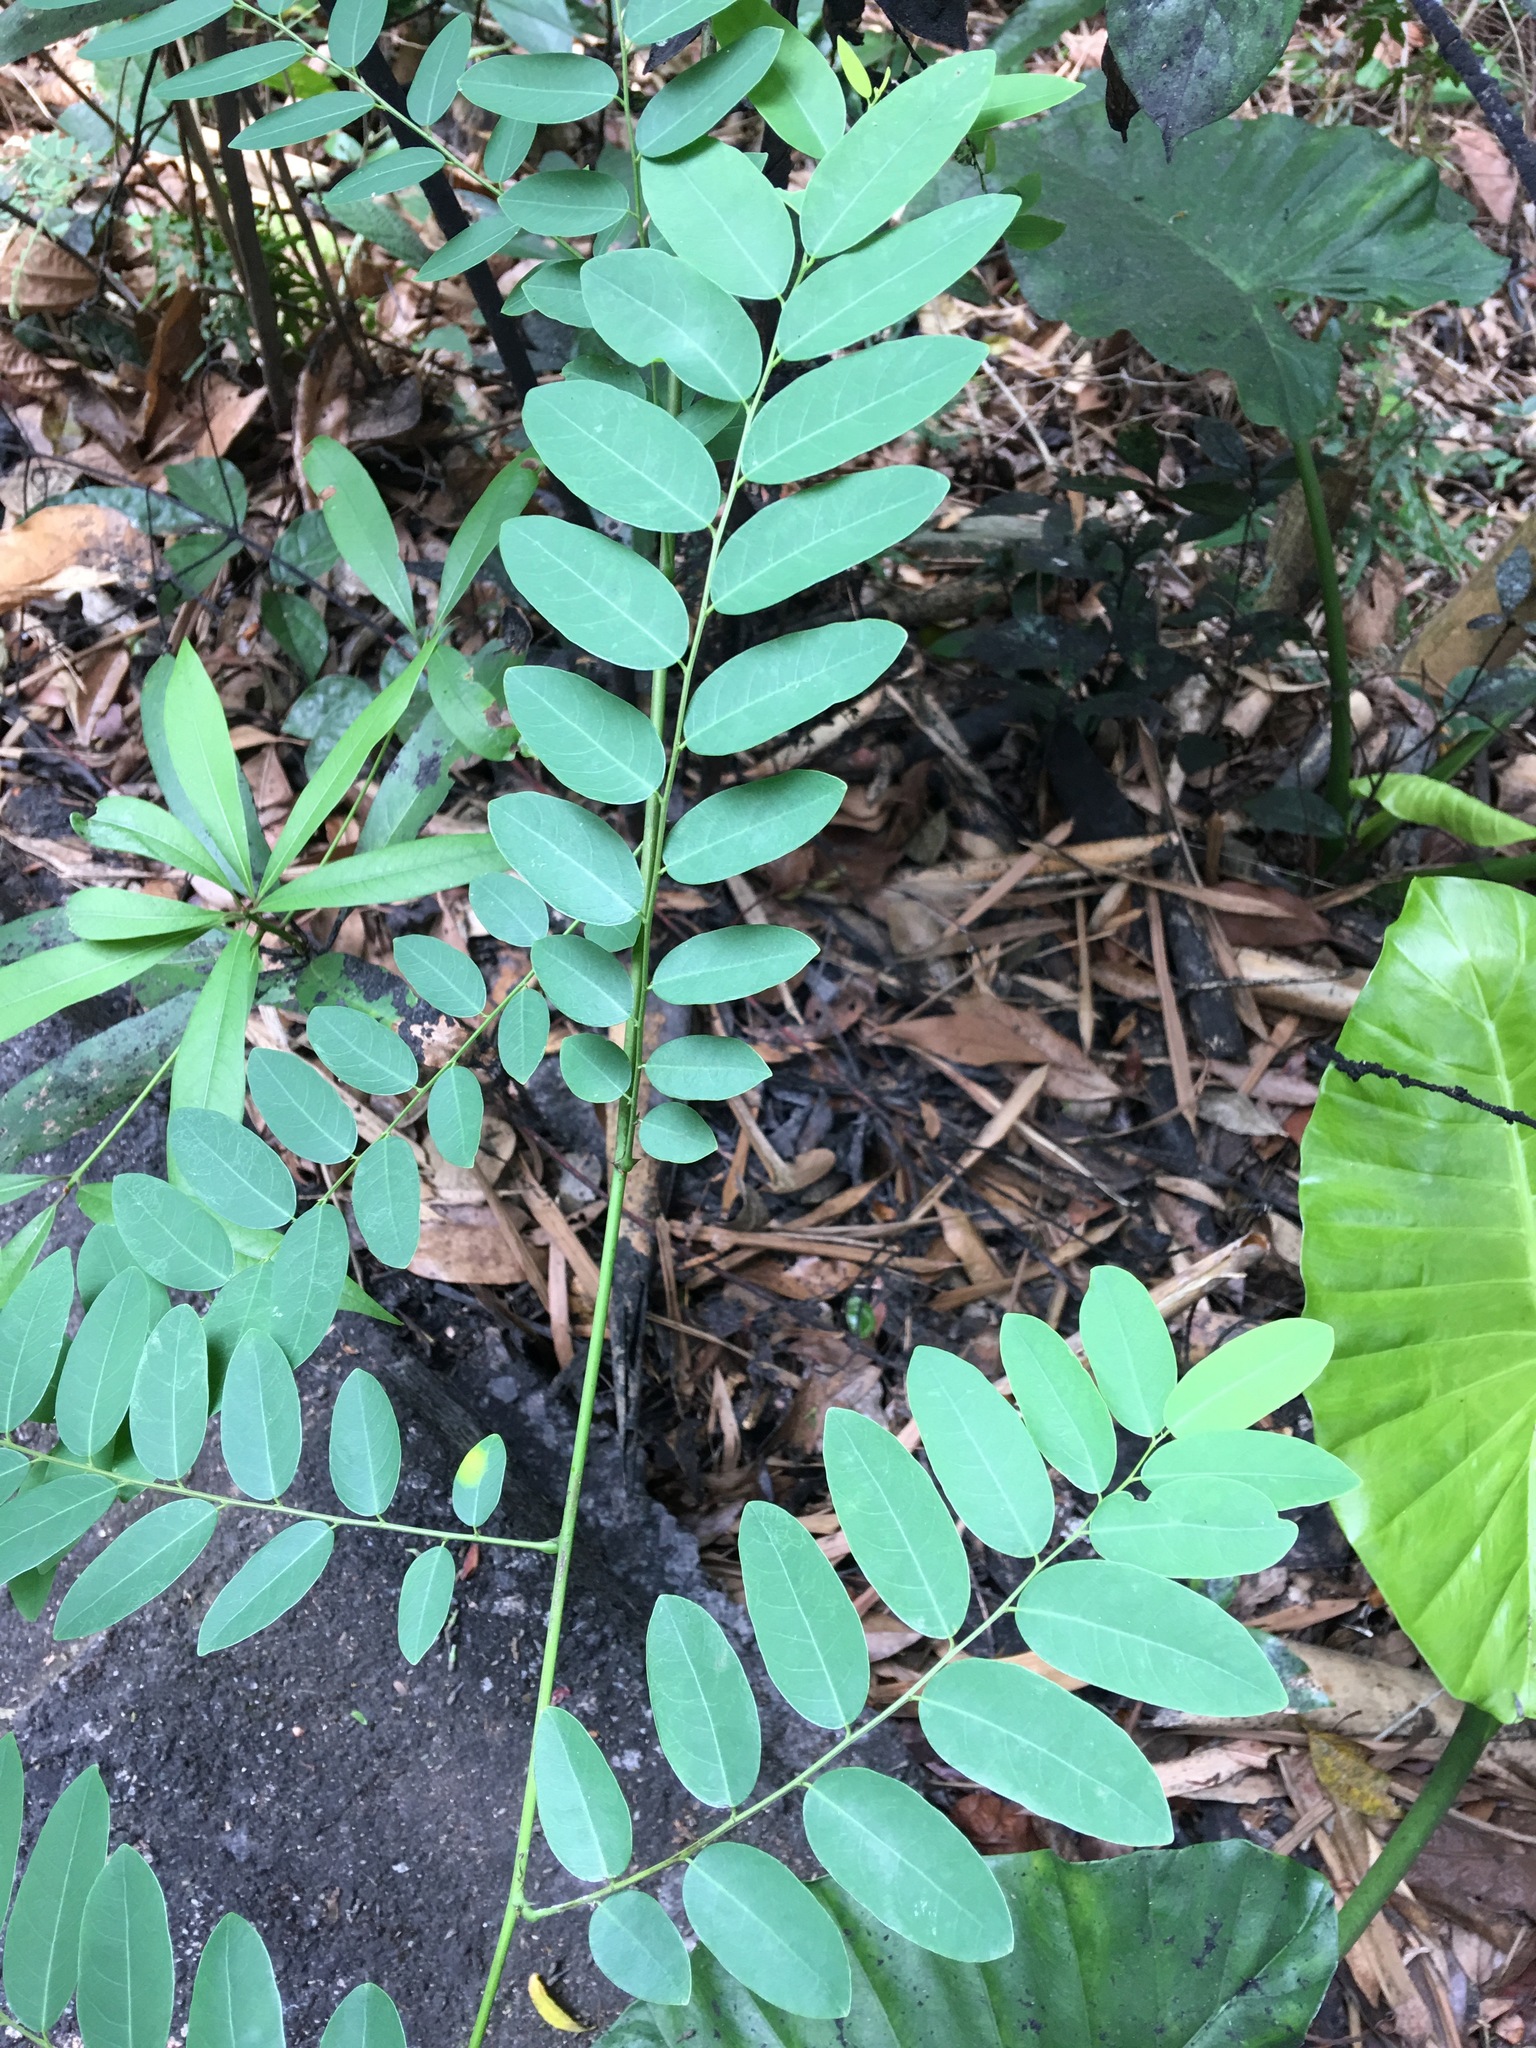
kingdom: Plantae
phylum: Tracheophyta
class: Magnoliopsida
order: Fabales
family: Fabaceae
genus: Dalbergia
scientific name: Dalbergia hancei
